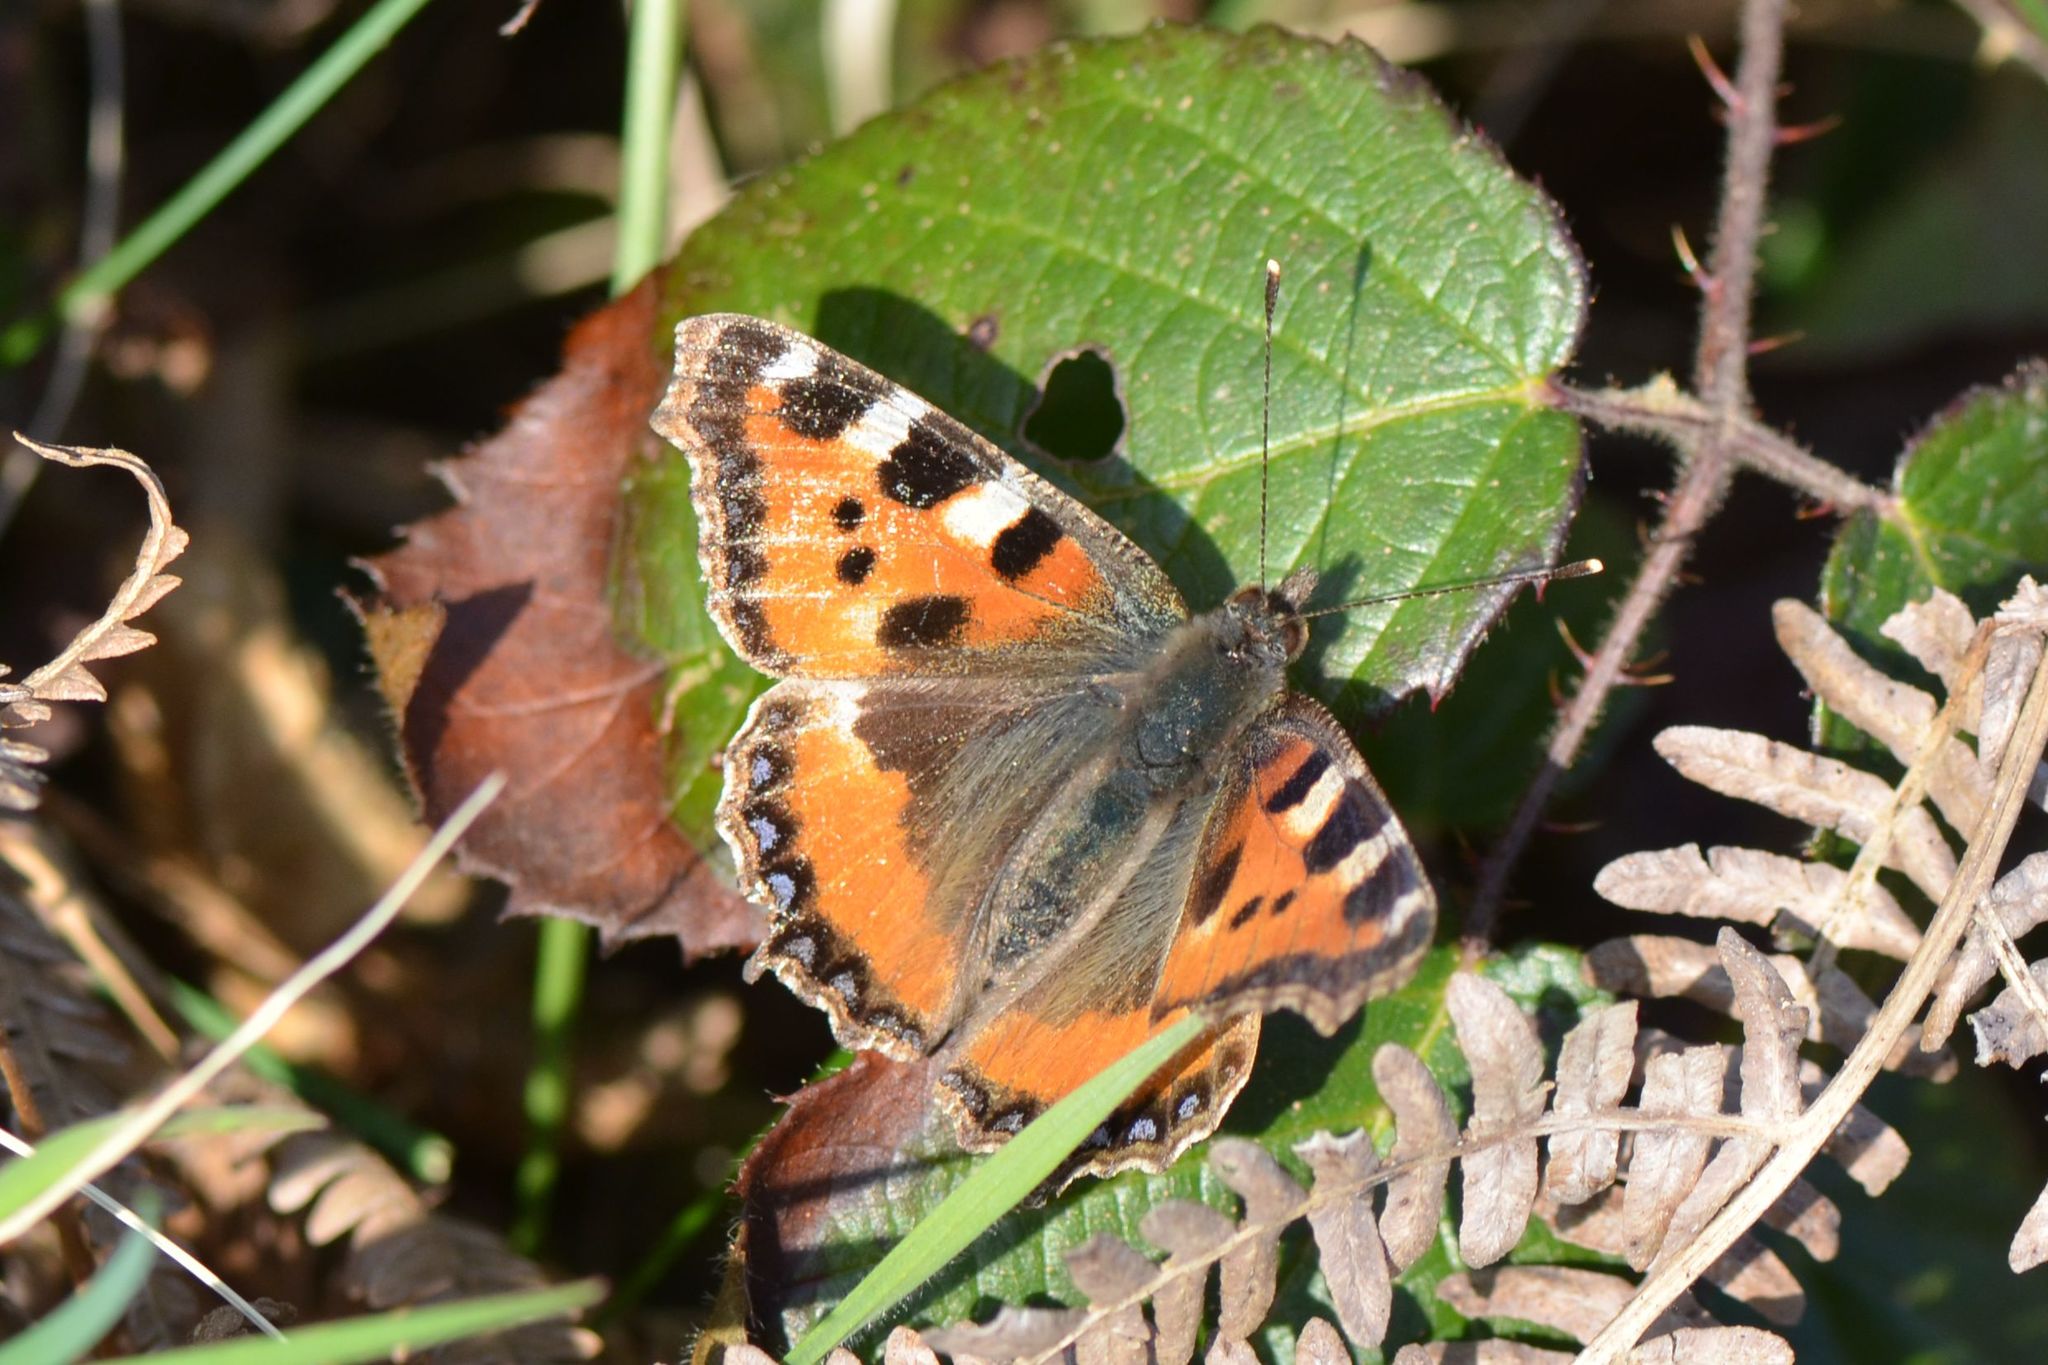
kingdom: Animalia
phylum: Arthropoda
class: Insecta
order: Lepidoptera
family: Nymphalidae
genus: Aglais
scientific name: Aglais urticae
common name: Small tortoiseshell
